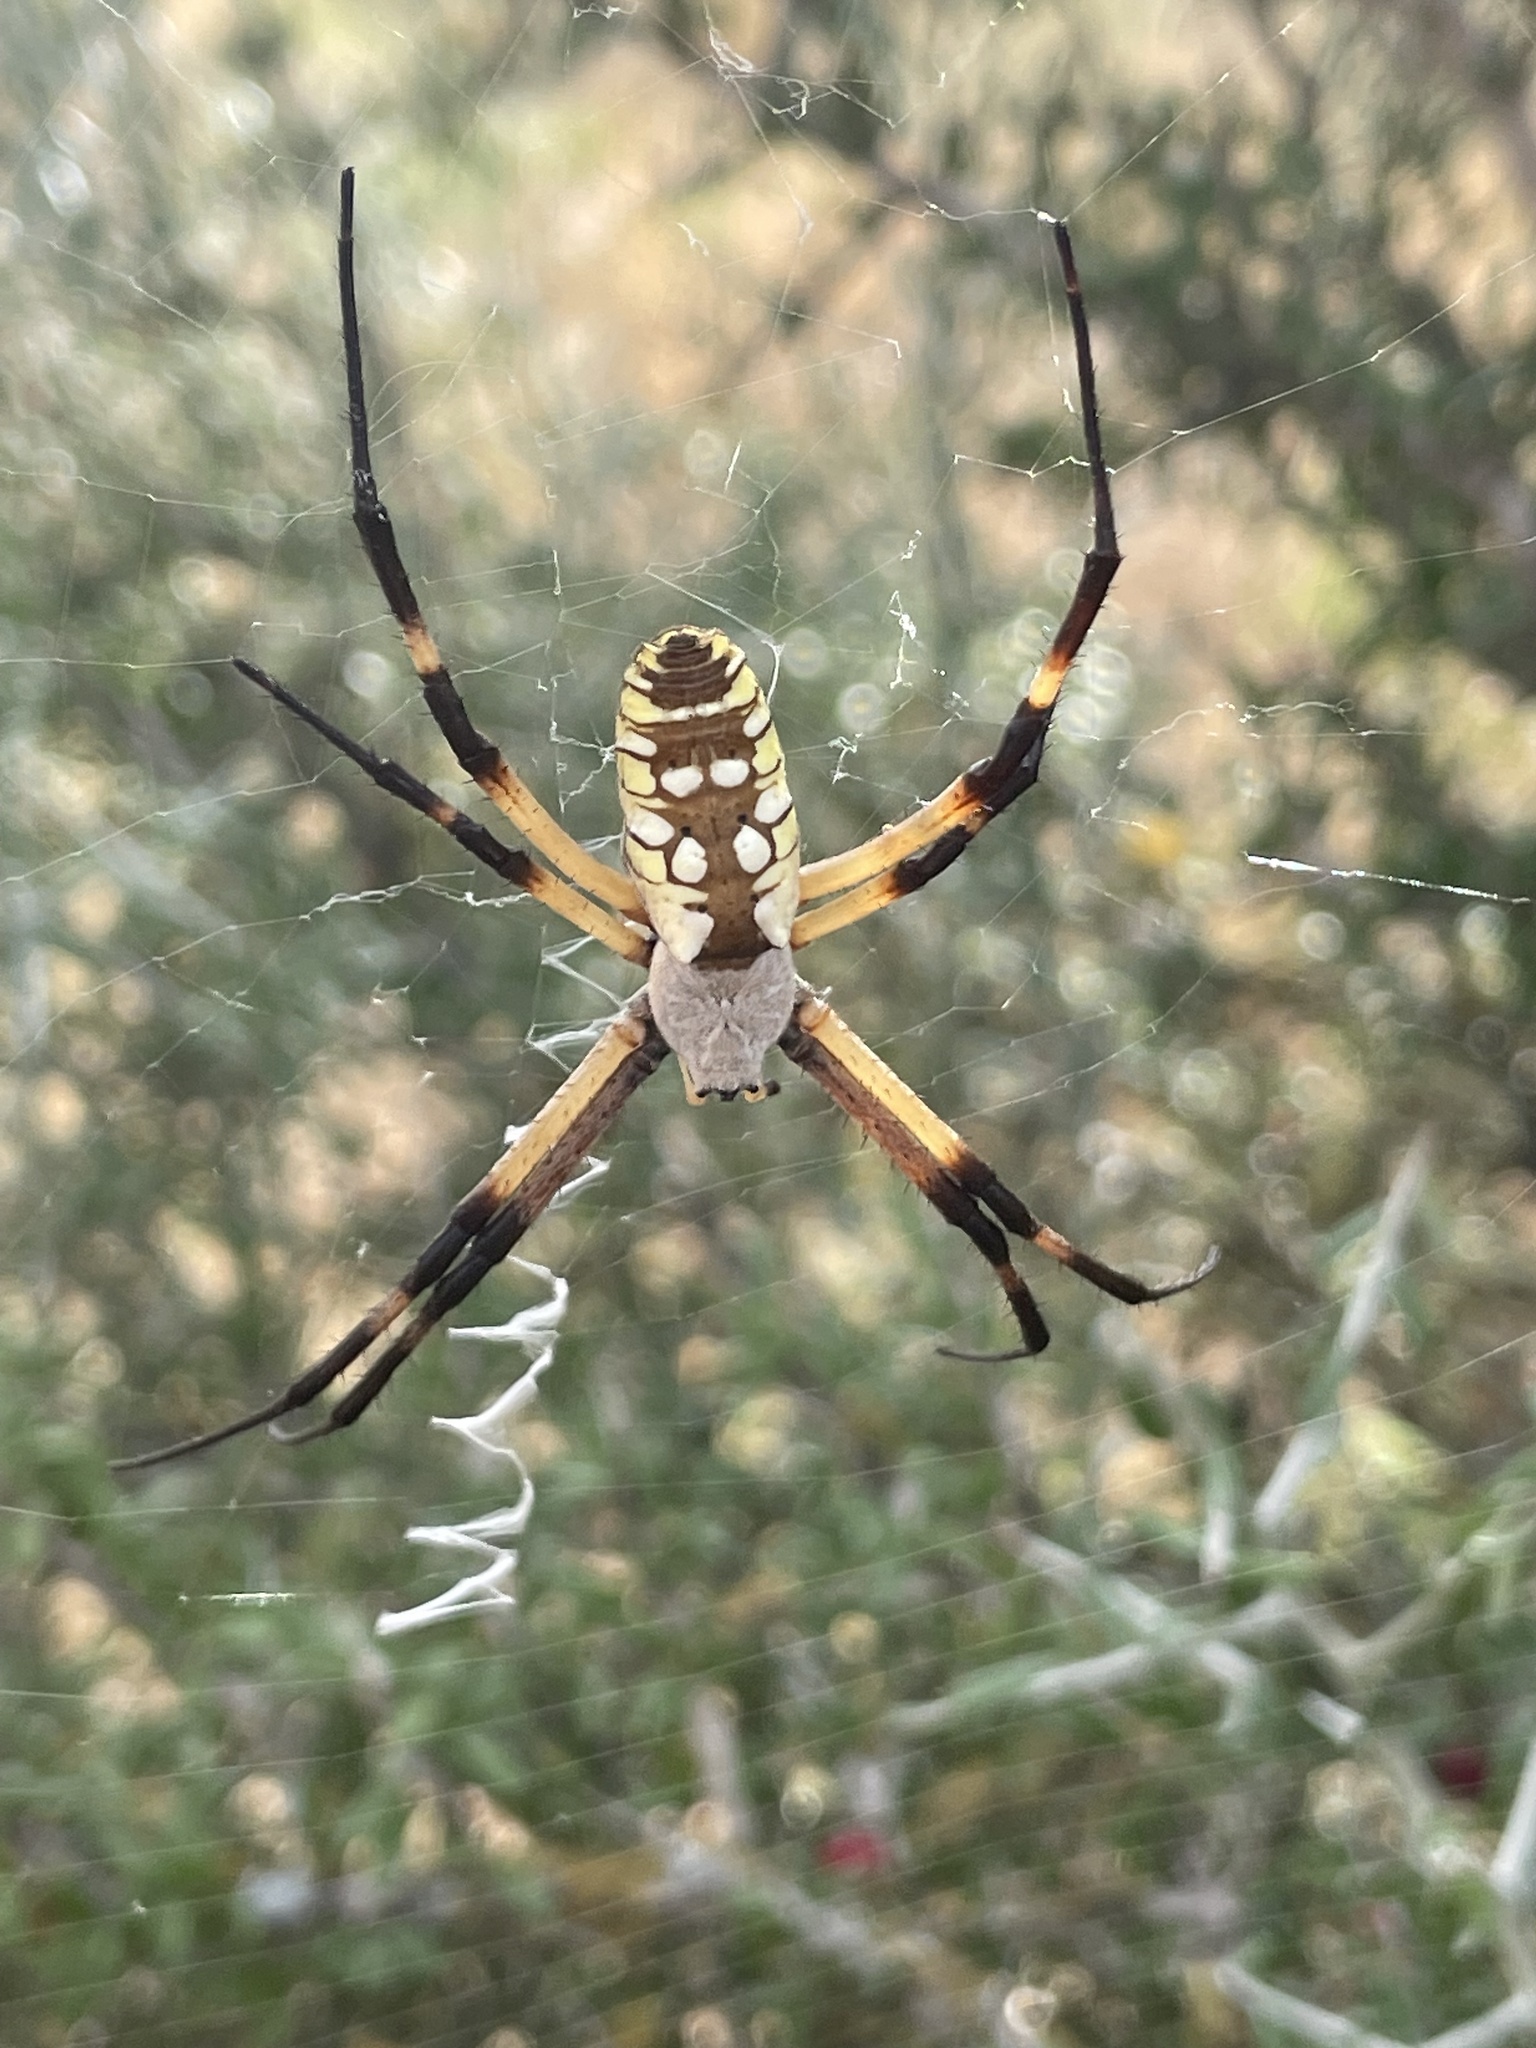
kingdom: Animalia
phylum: Arthropoda
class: Arachnida
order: Araneae
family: Araneidae
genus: Argiope
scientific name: Argiope aurantia
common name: Orb weavers
